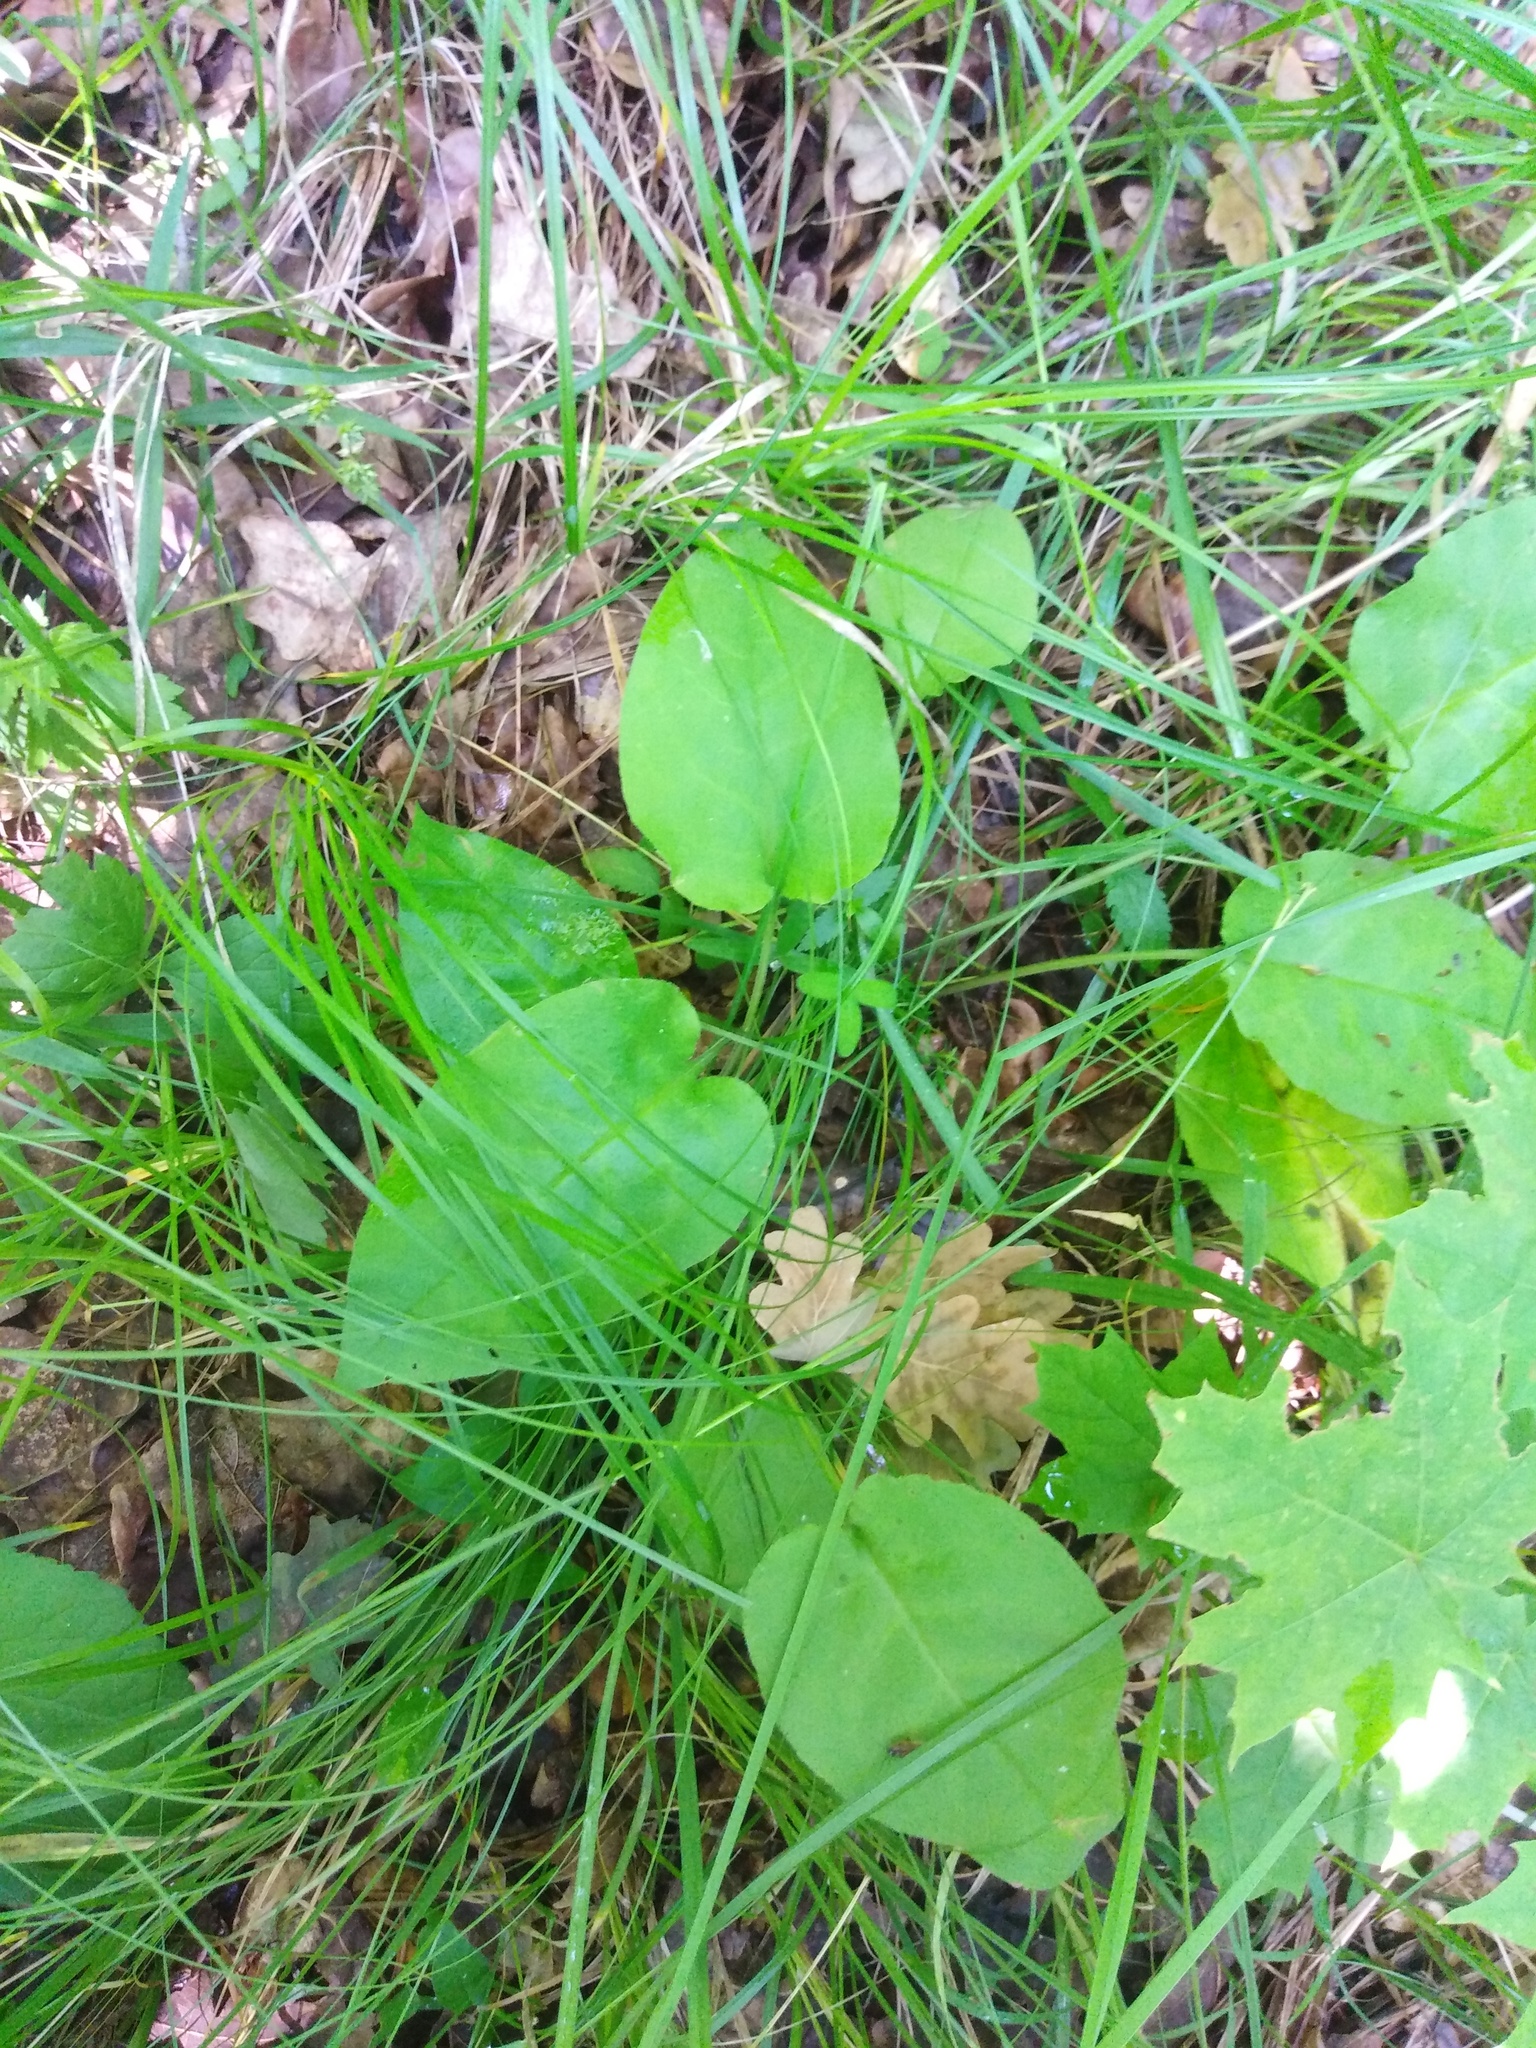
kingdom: Plantae
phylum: Tracheophyta
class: Magnoliopsida
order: Boraginales
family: Boraginaceae
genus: Pulmonaria
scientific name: Pulmonaria obscura
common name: Suffolk lungwort
